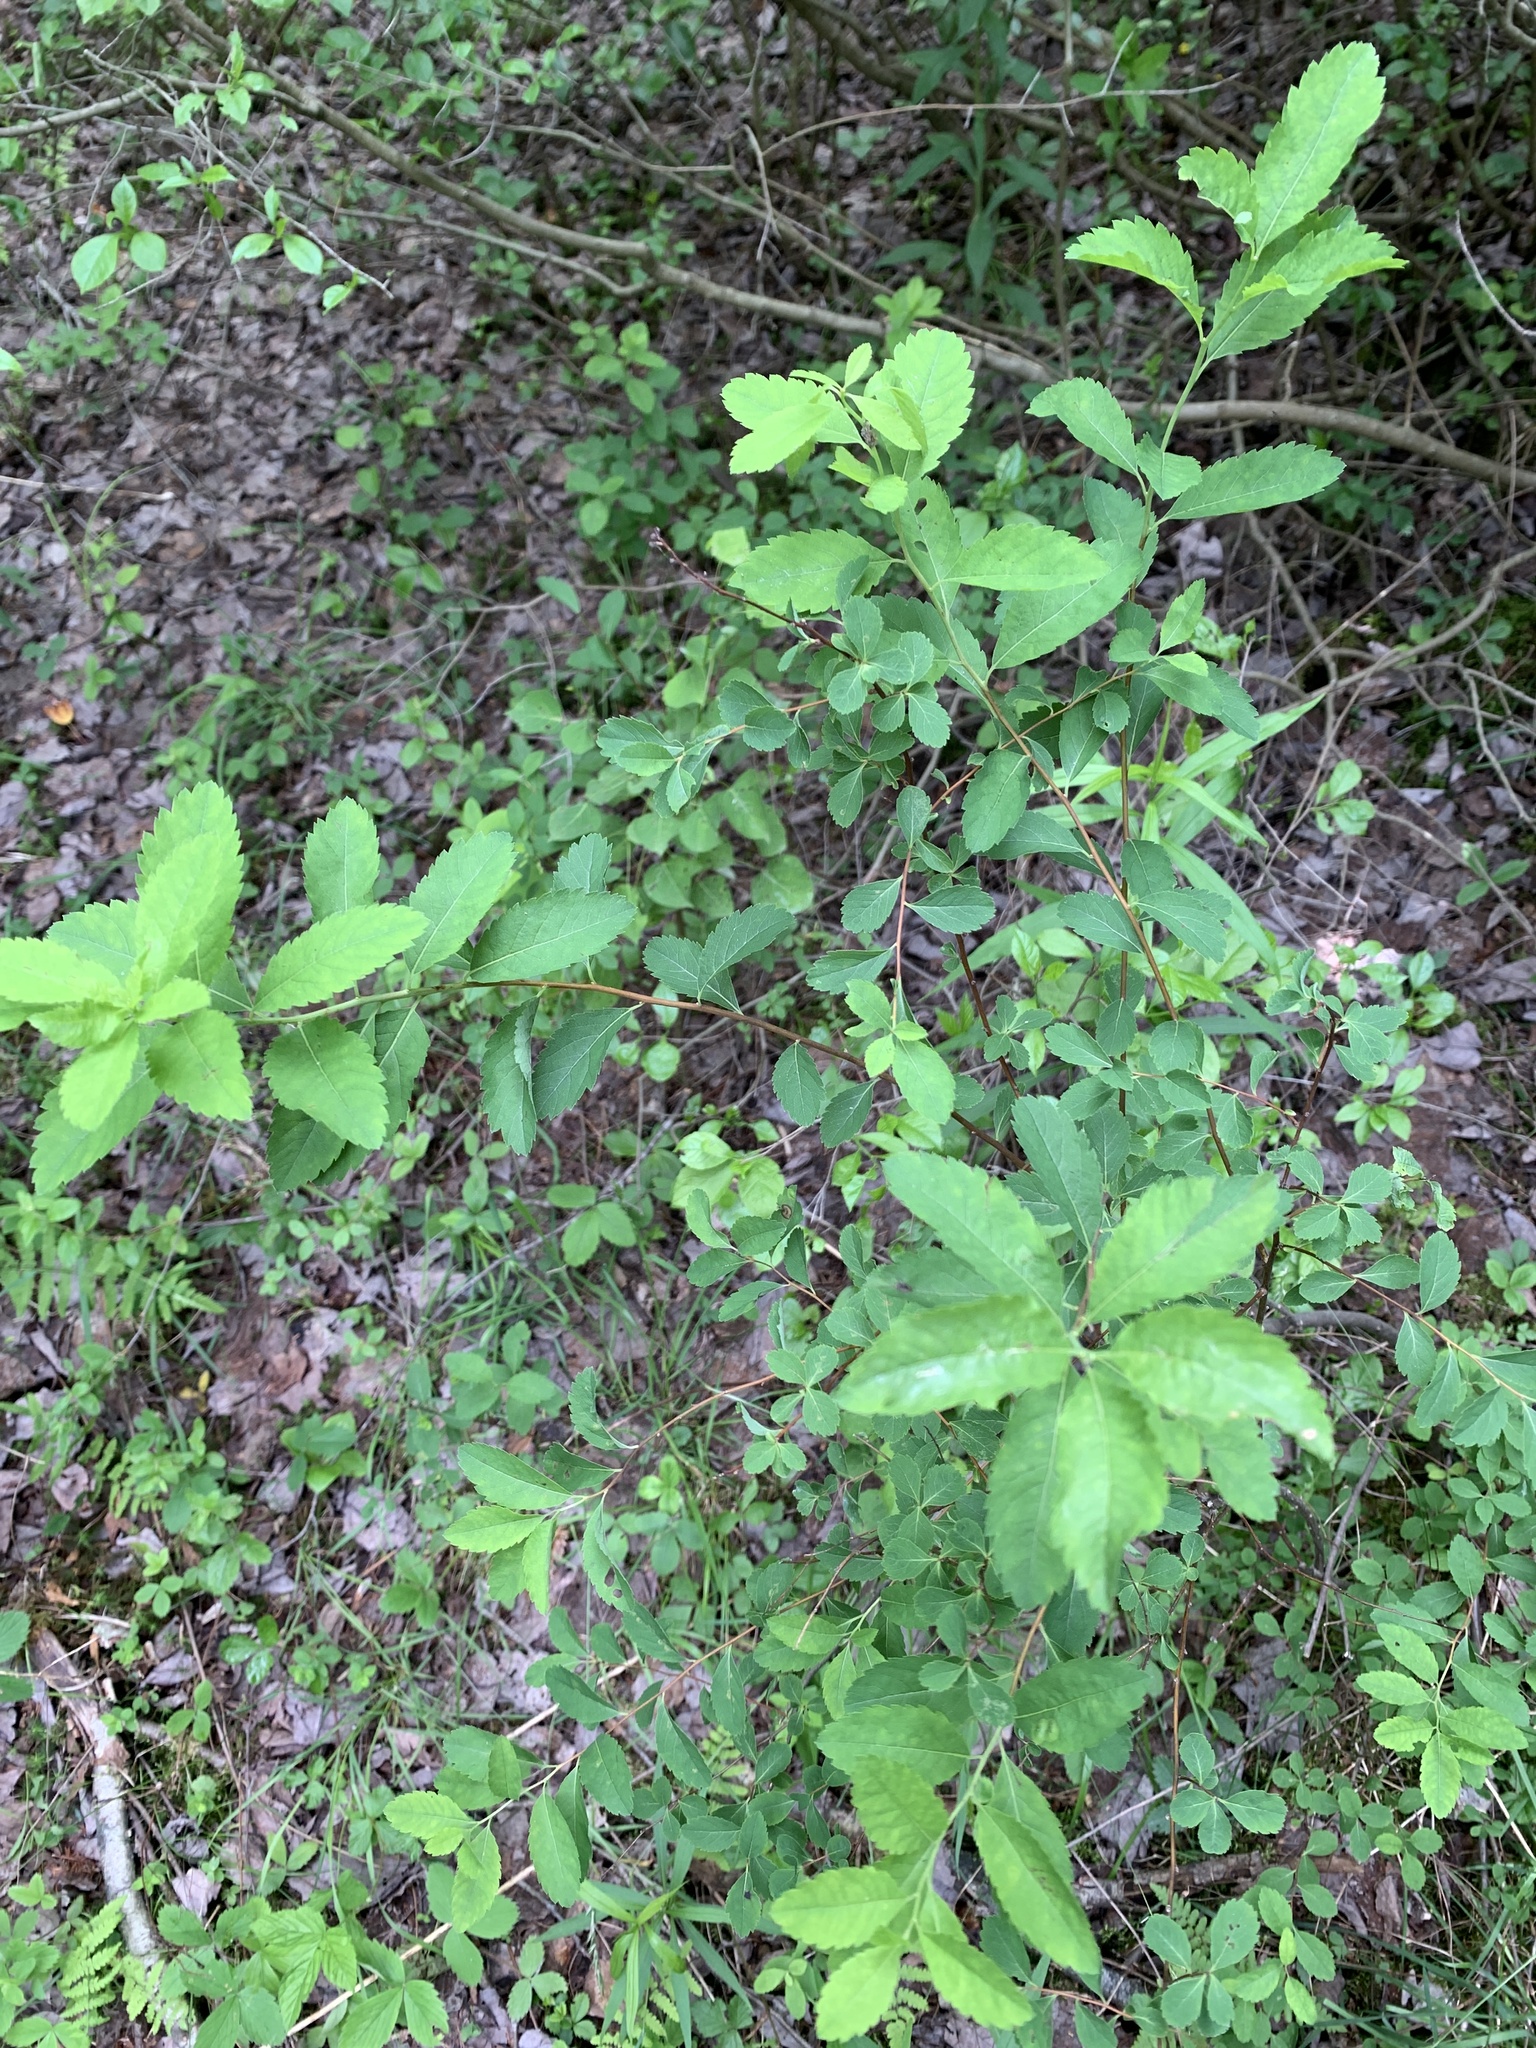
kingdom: Plantae
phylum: Tracheophyta
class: Magnoliopsida
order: Rosales
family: Rosaceae
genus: Spiraea
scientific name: Spiraea alba
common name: Pale bridewort
